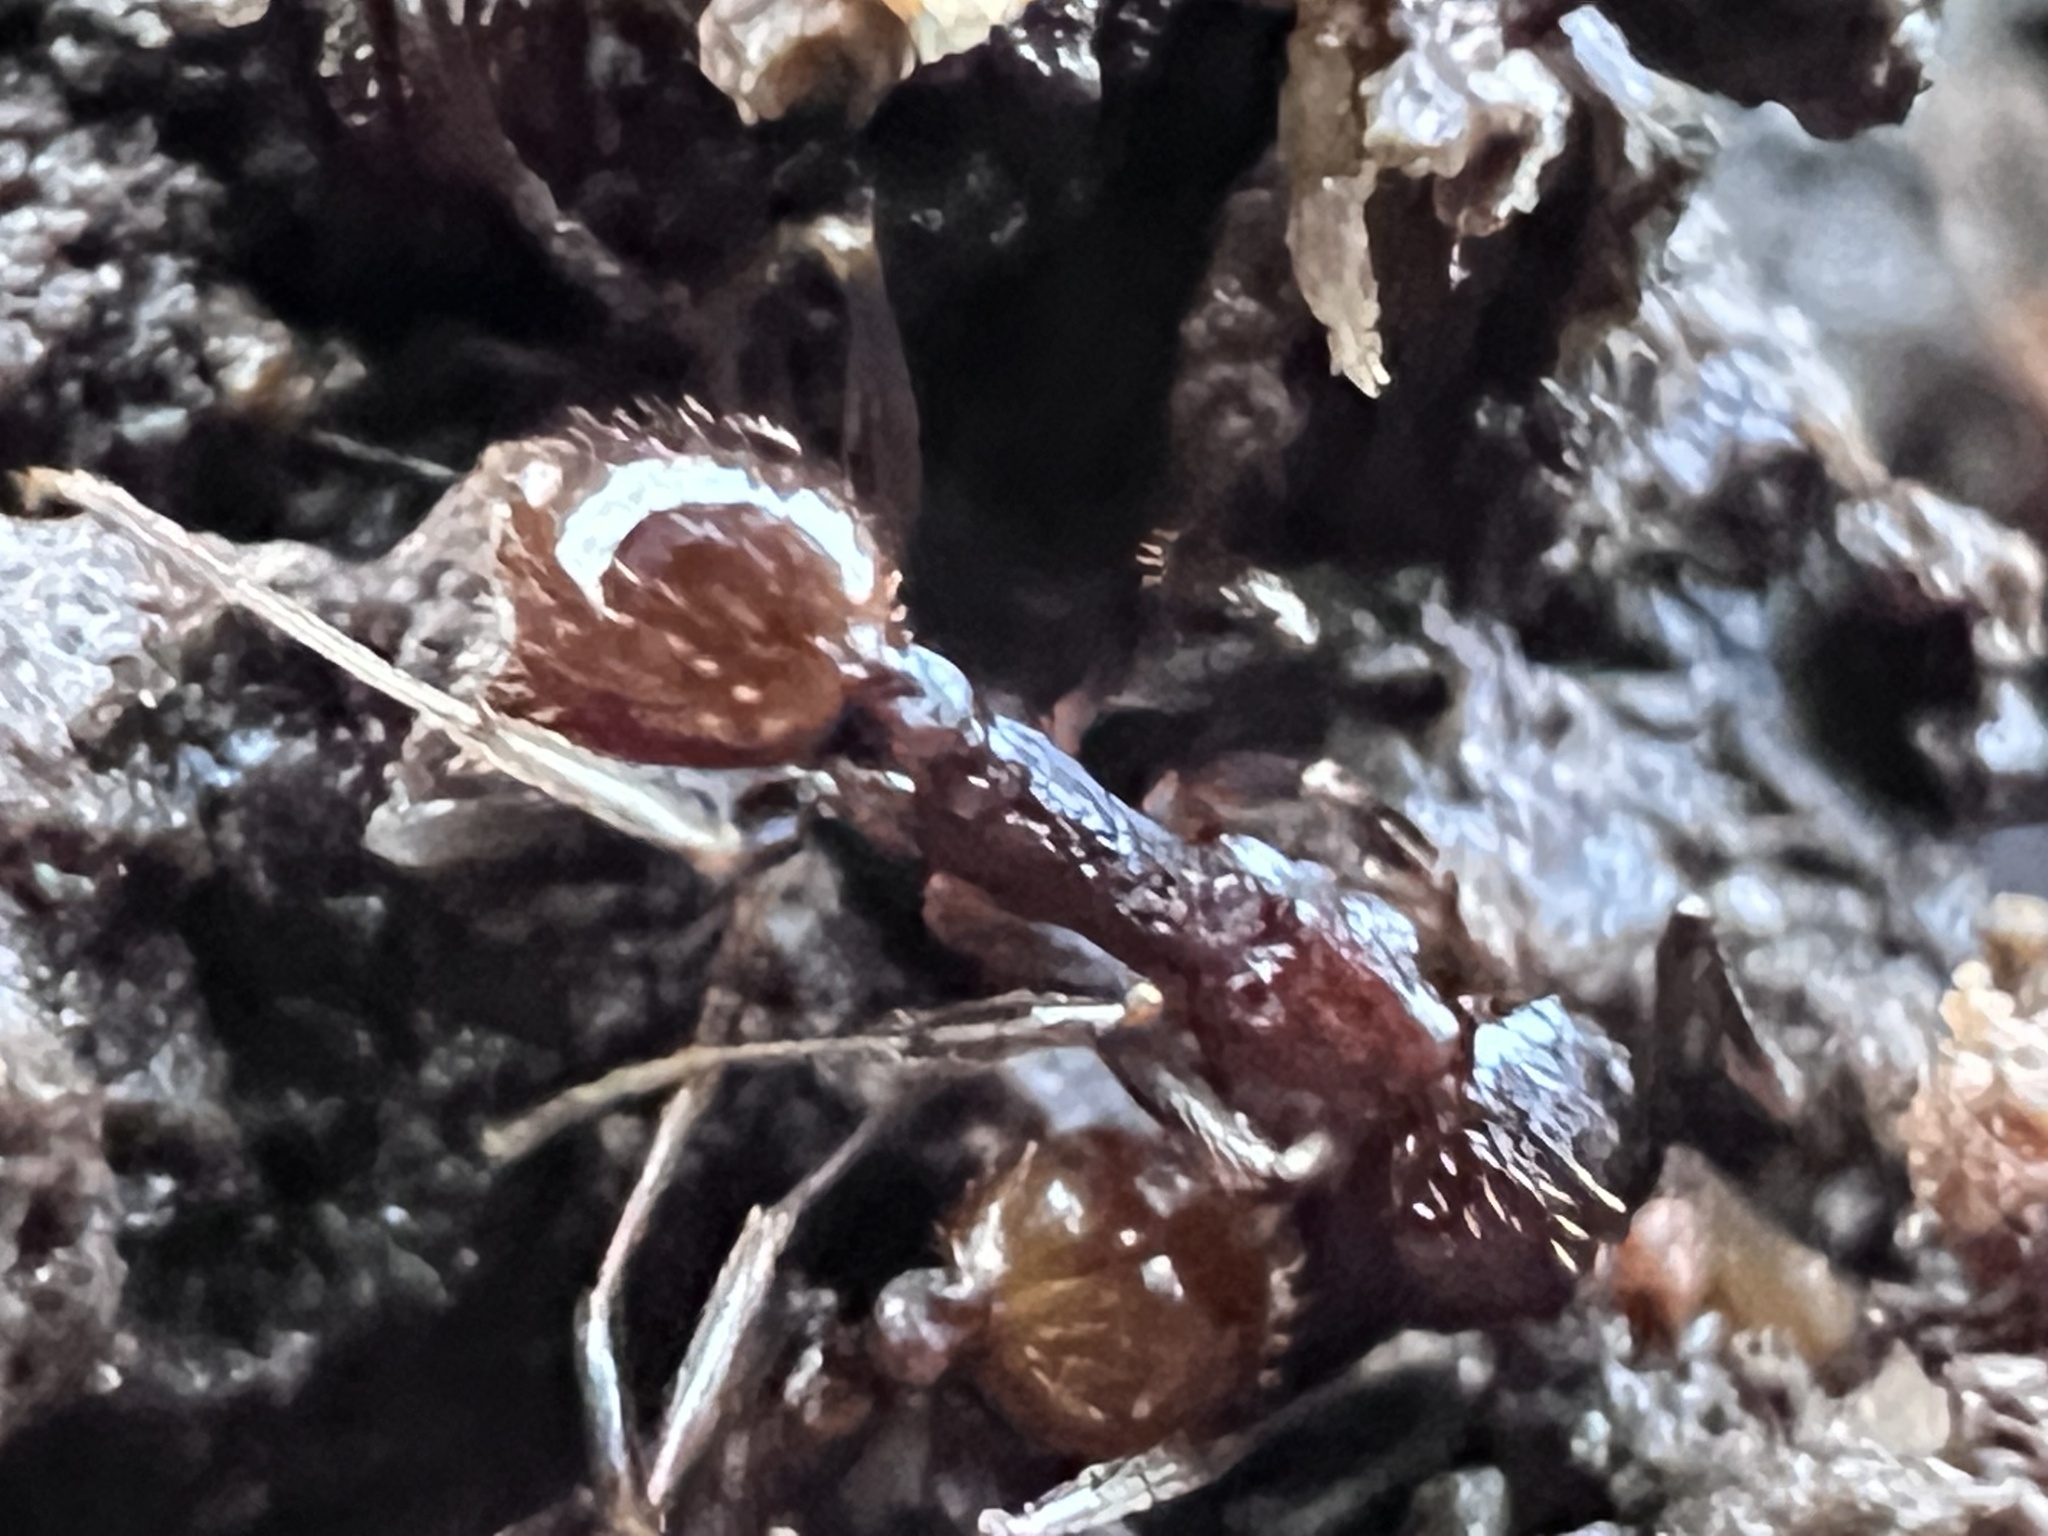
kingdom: Animalia
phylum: Arthropoda
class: Insecta
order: Hymenoptera
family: Formicidae
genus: Aphaenogaster
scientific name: Aphaenogaster fulva
